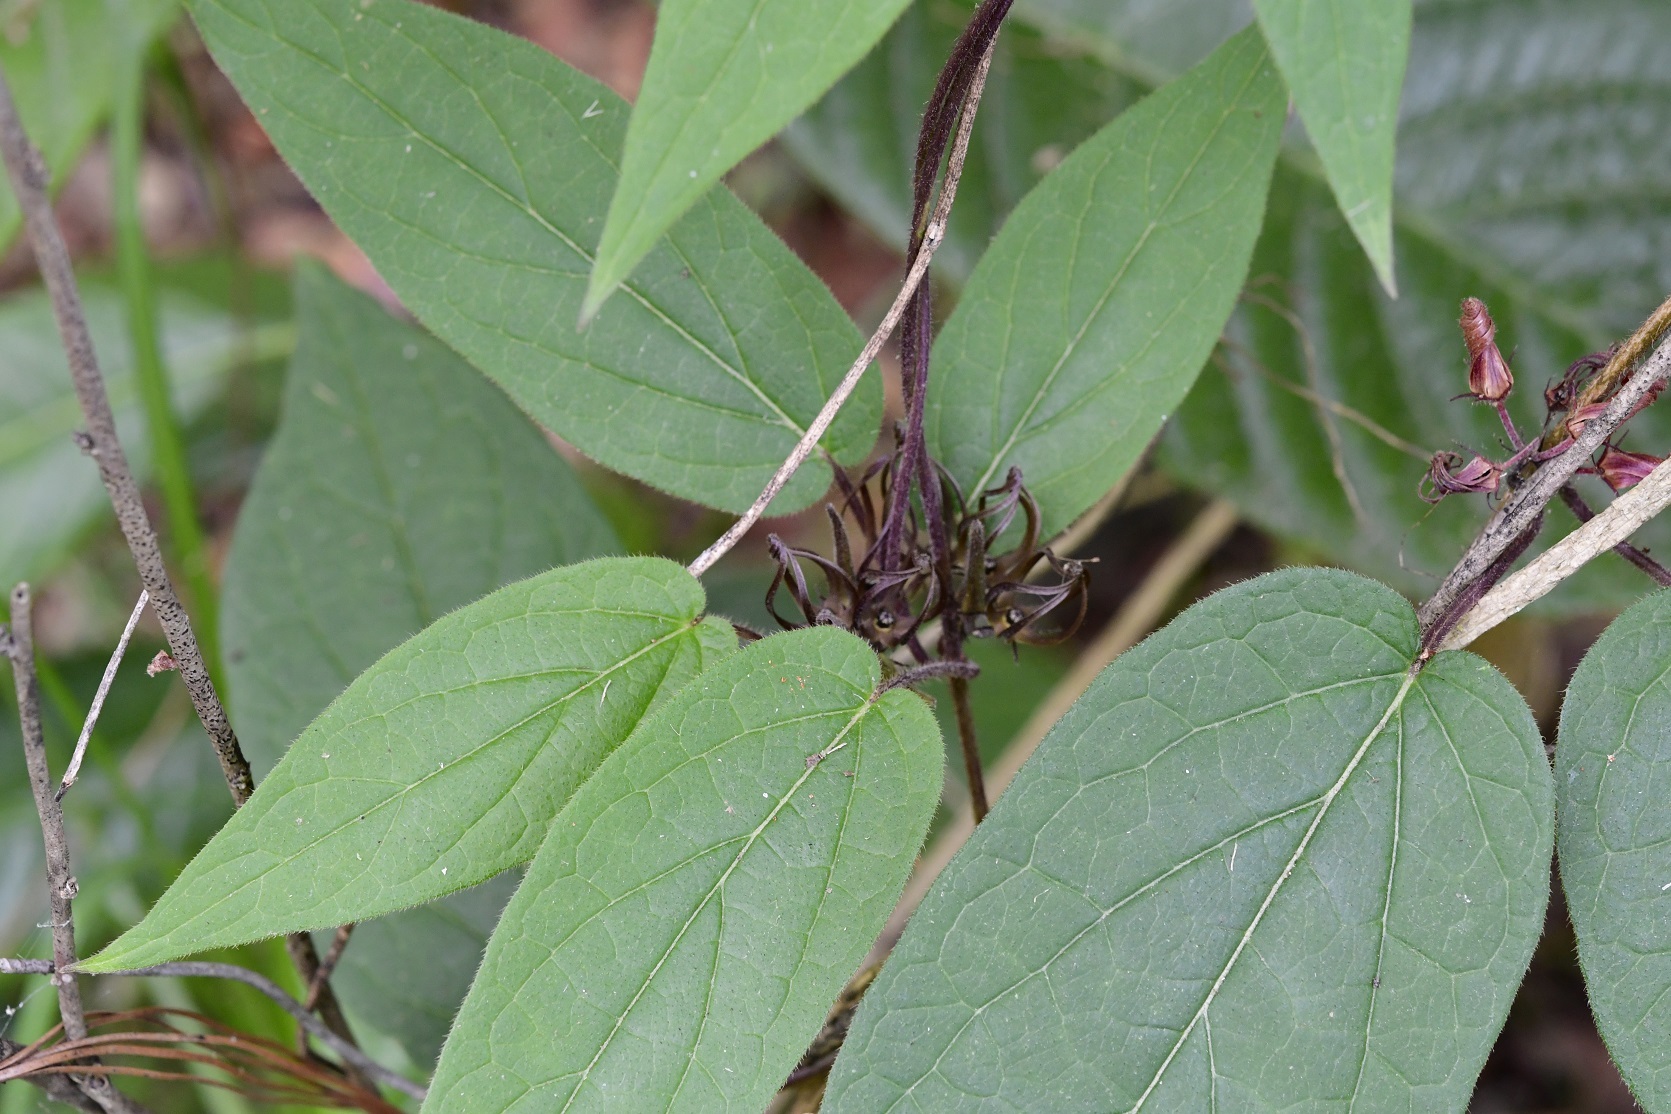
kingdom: Plantae
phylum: Tracheophyta
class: Magnoliopsida
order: Gentianales
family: Apocynaceae
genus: Matelea
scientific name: Matelea medusae
